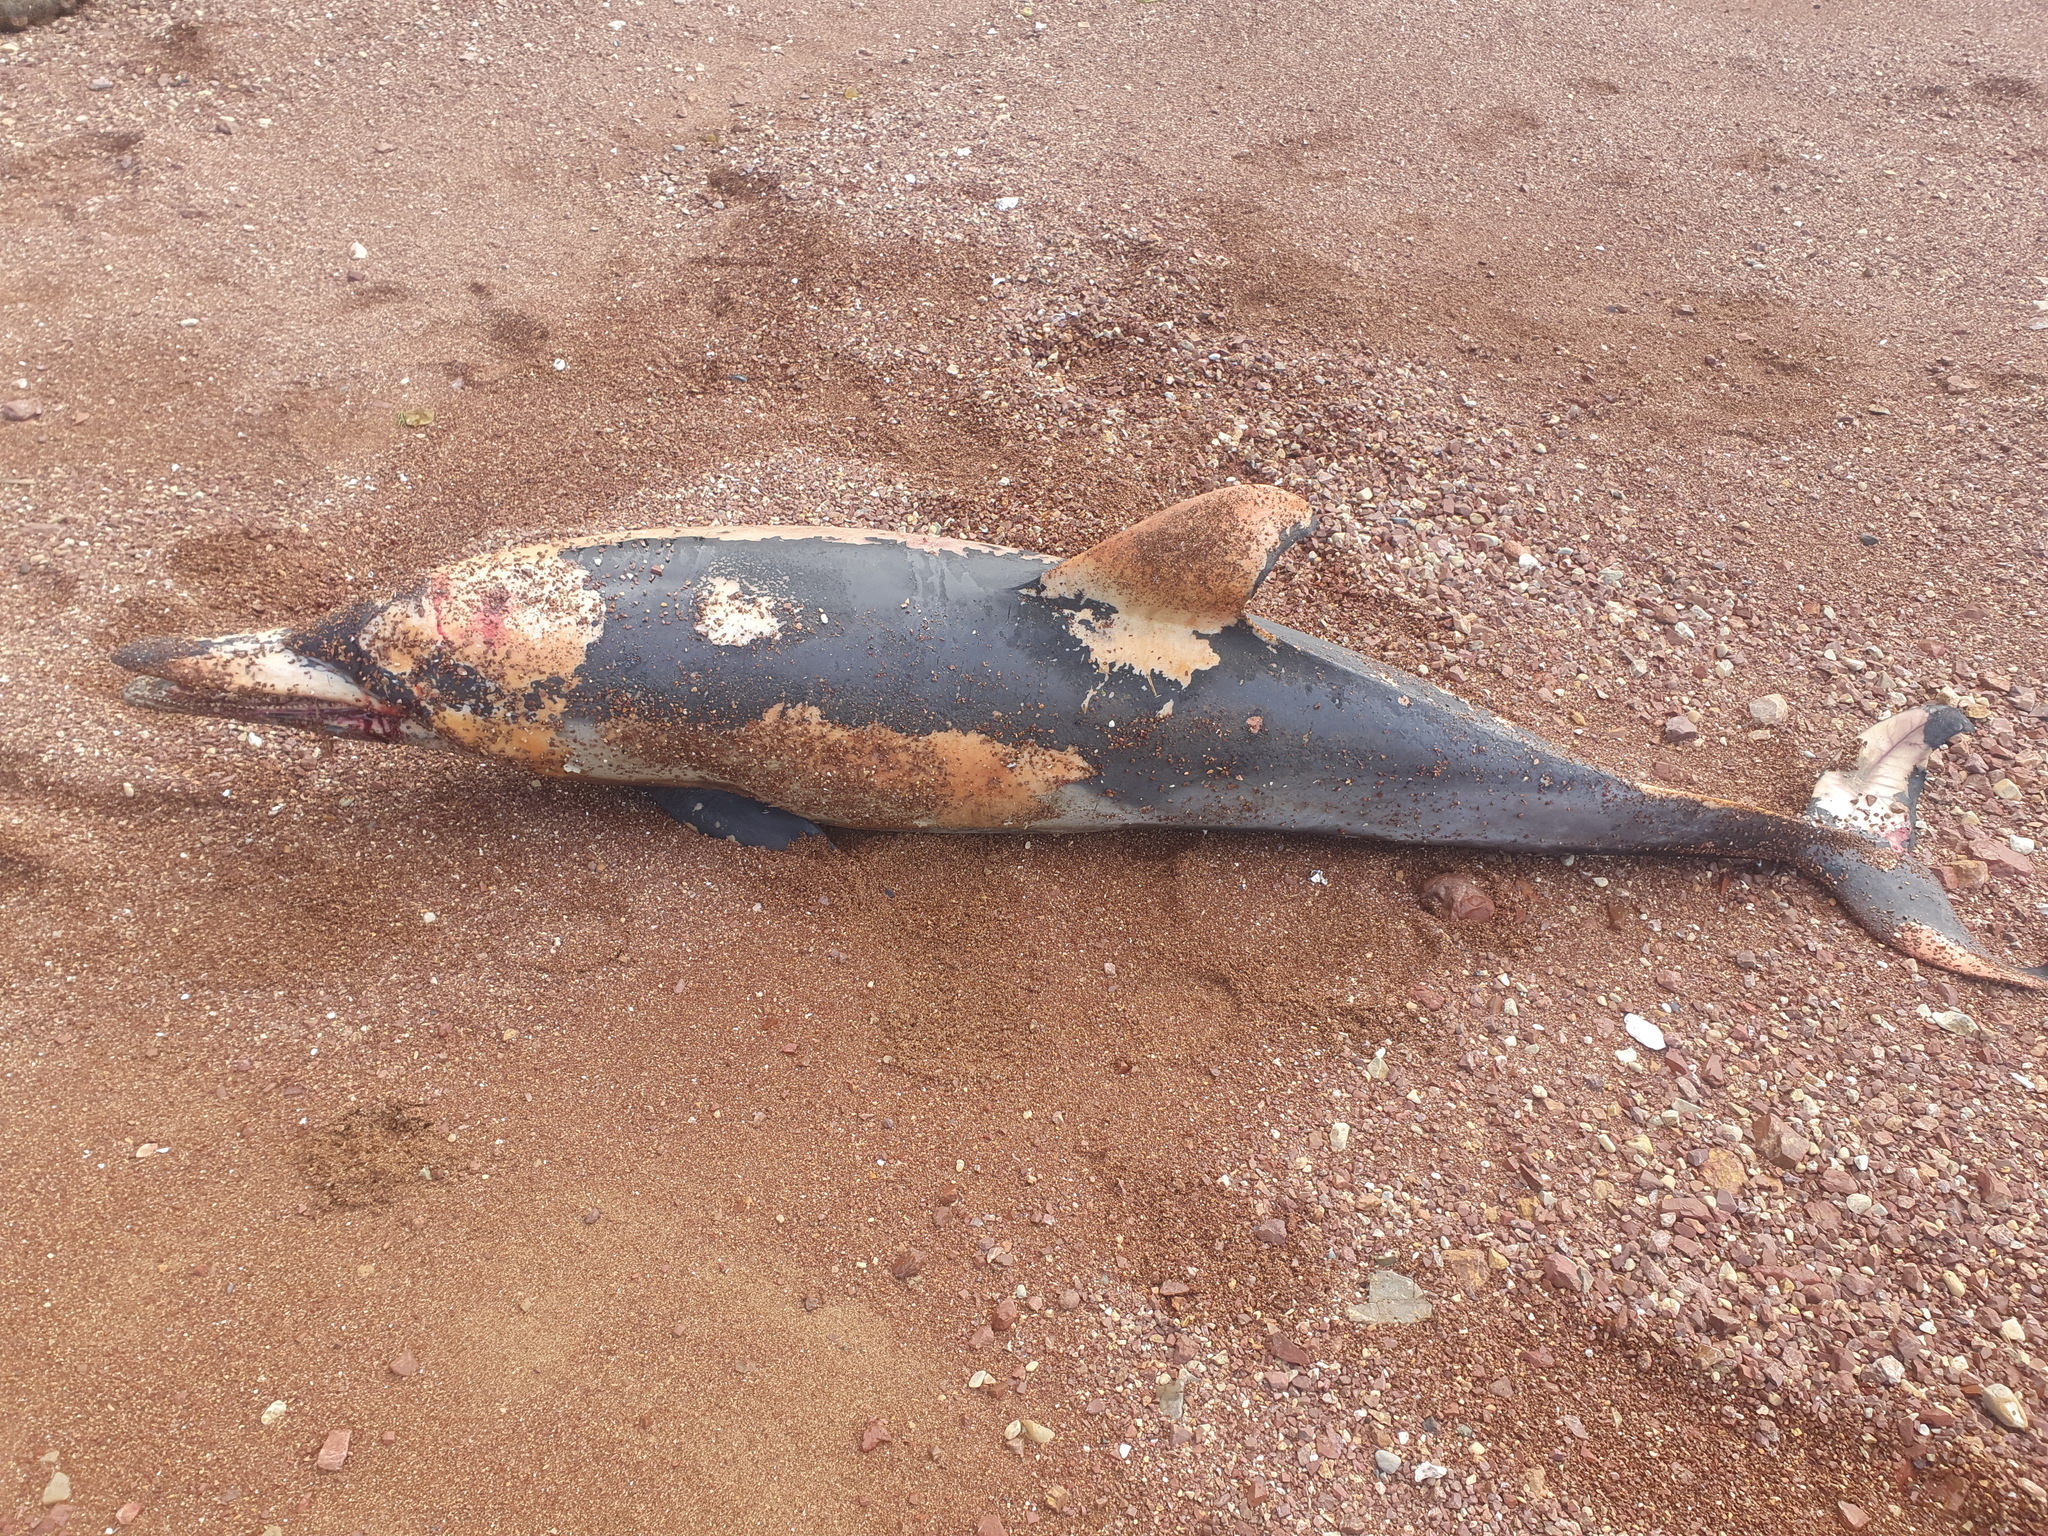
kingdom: Animalia
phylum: Chordata
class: Mammalia
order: Cetacea
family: Delphinidae
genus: Delphinus
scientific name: Delphinus delphis
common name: Common dolphin
